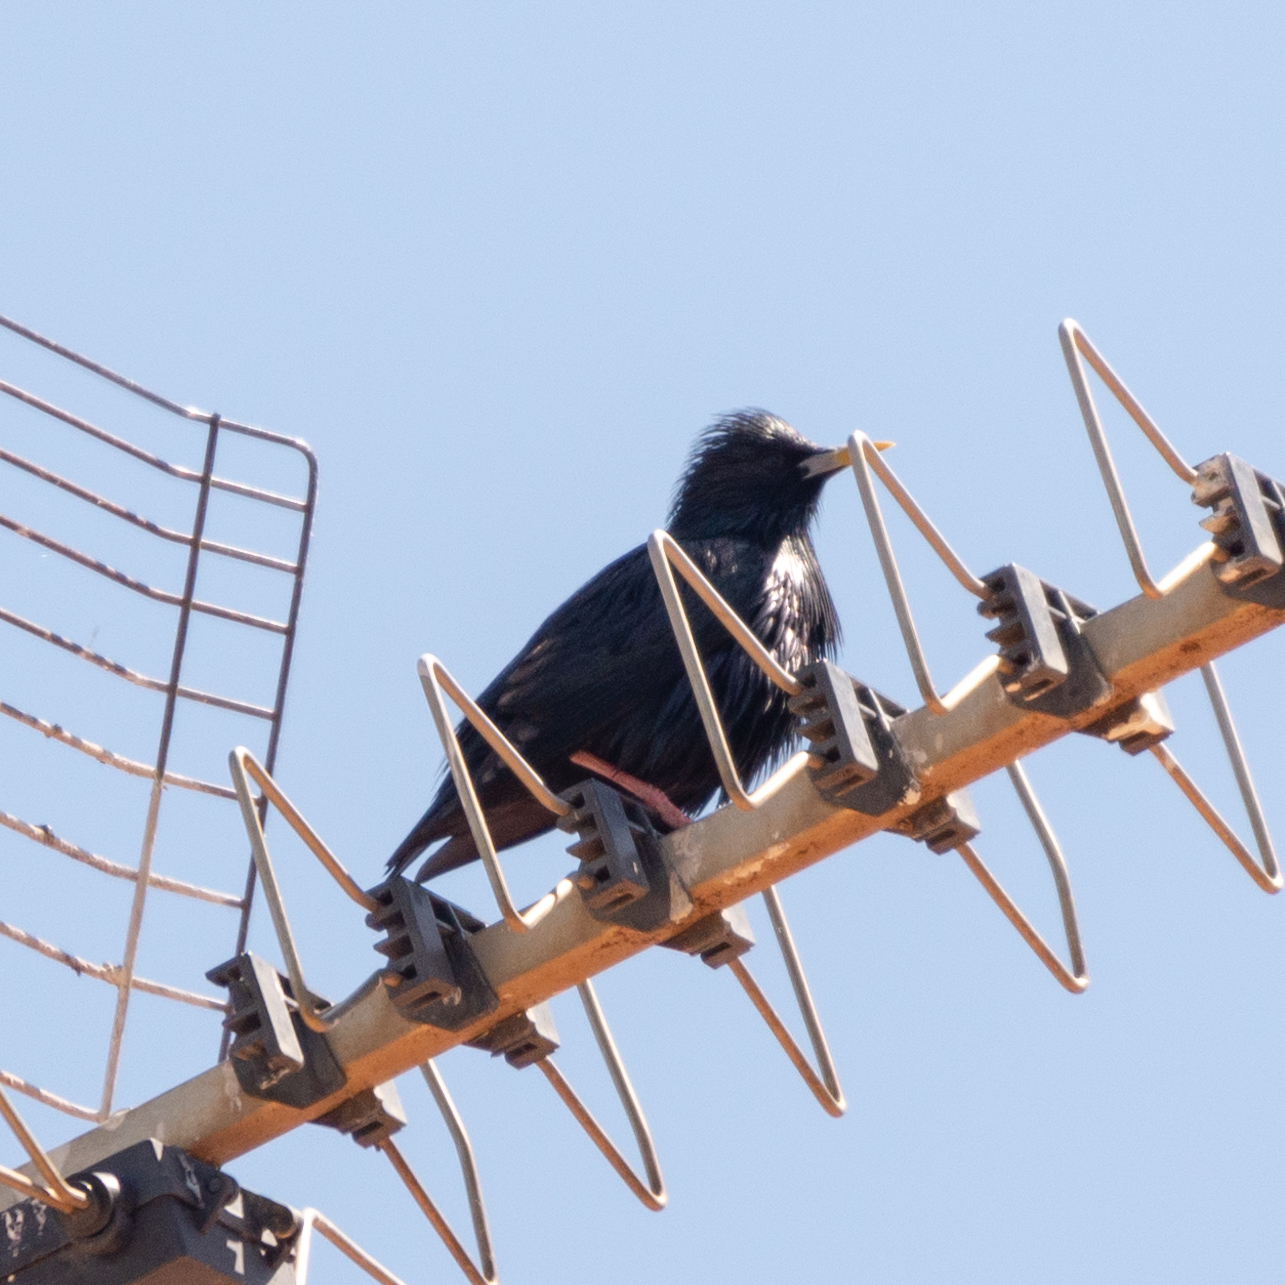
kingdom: Animalia
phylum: Chordata
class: Aves
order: Passeriformes
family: Sturnidae
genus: Sturnus
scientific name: Sturnus unicolor
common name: Spotless starling
